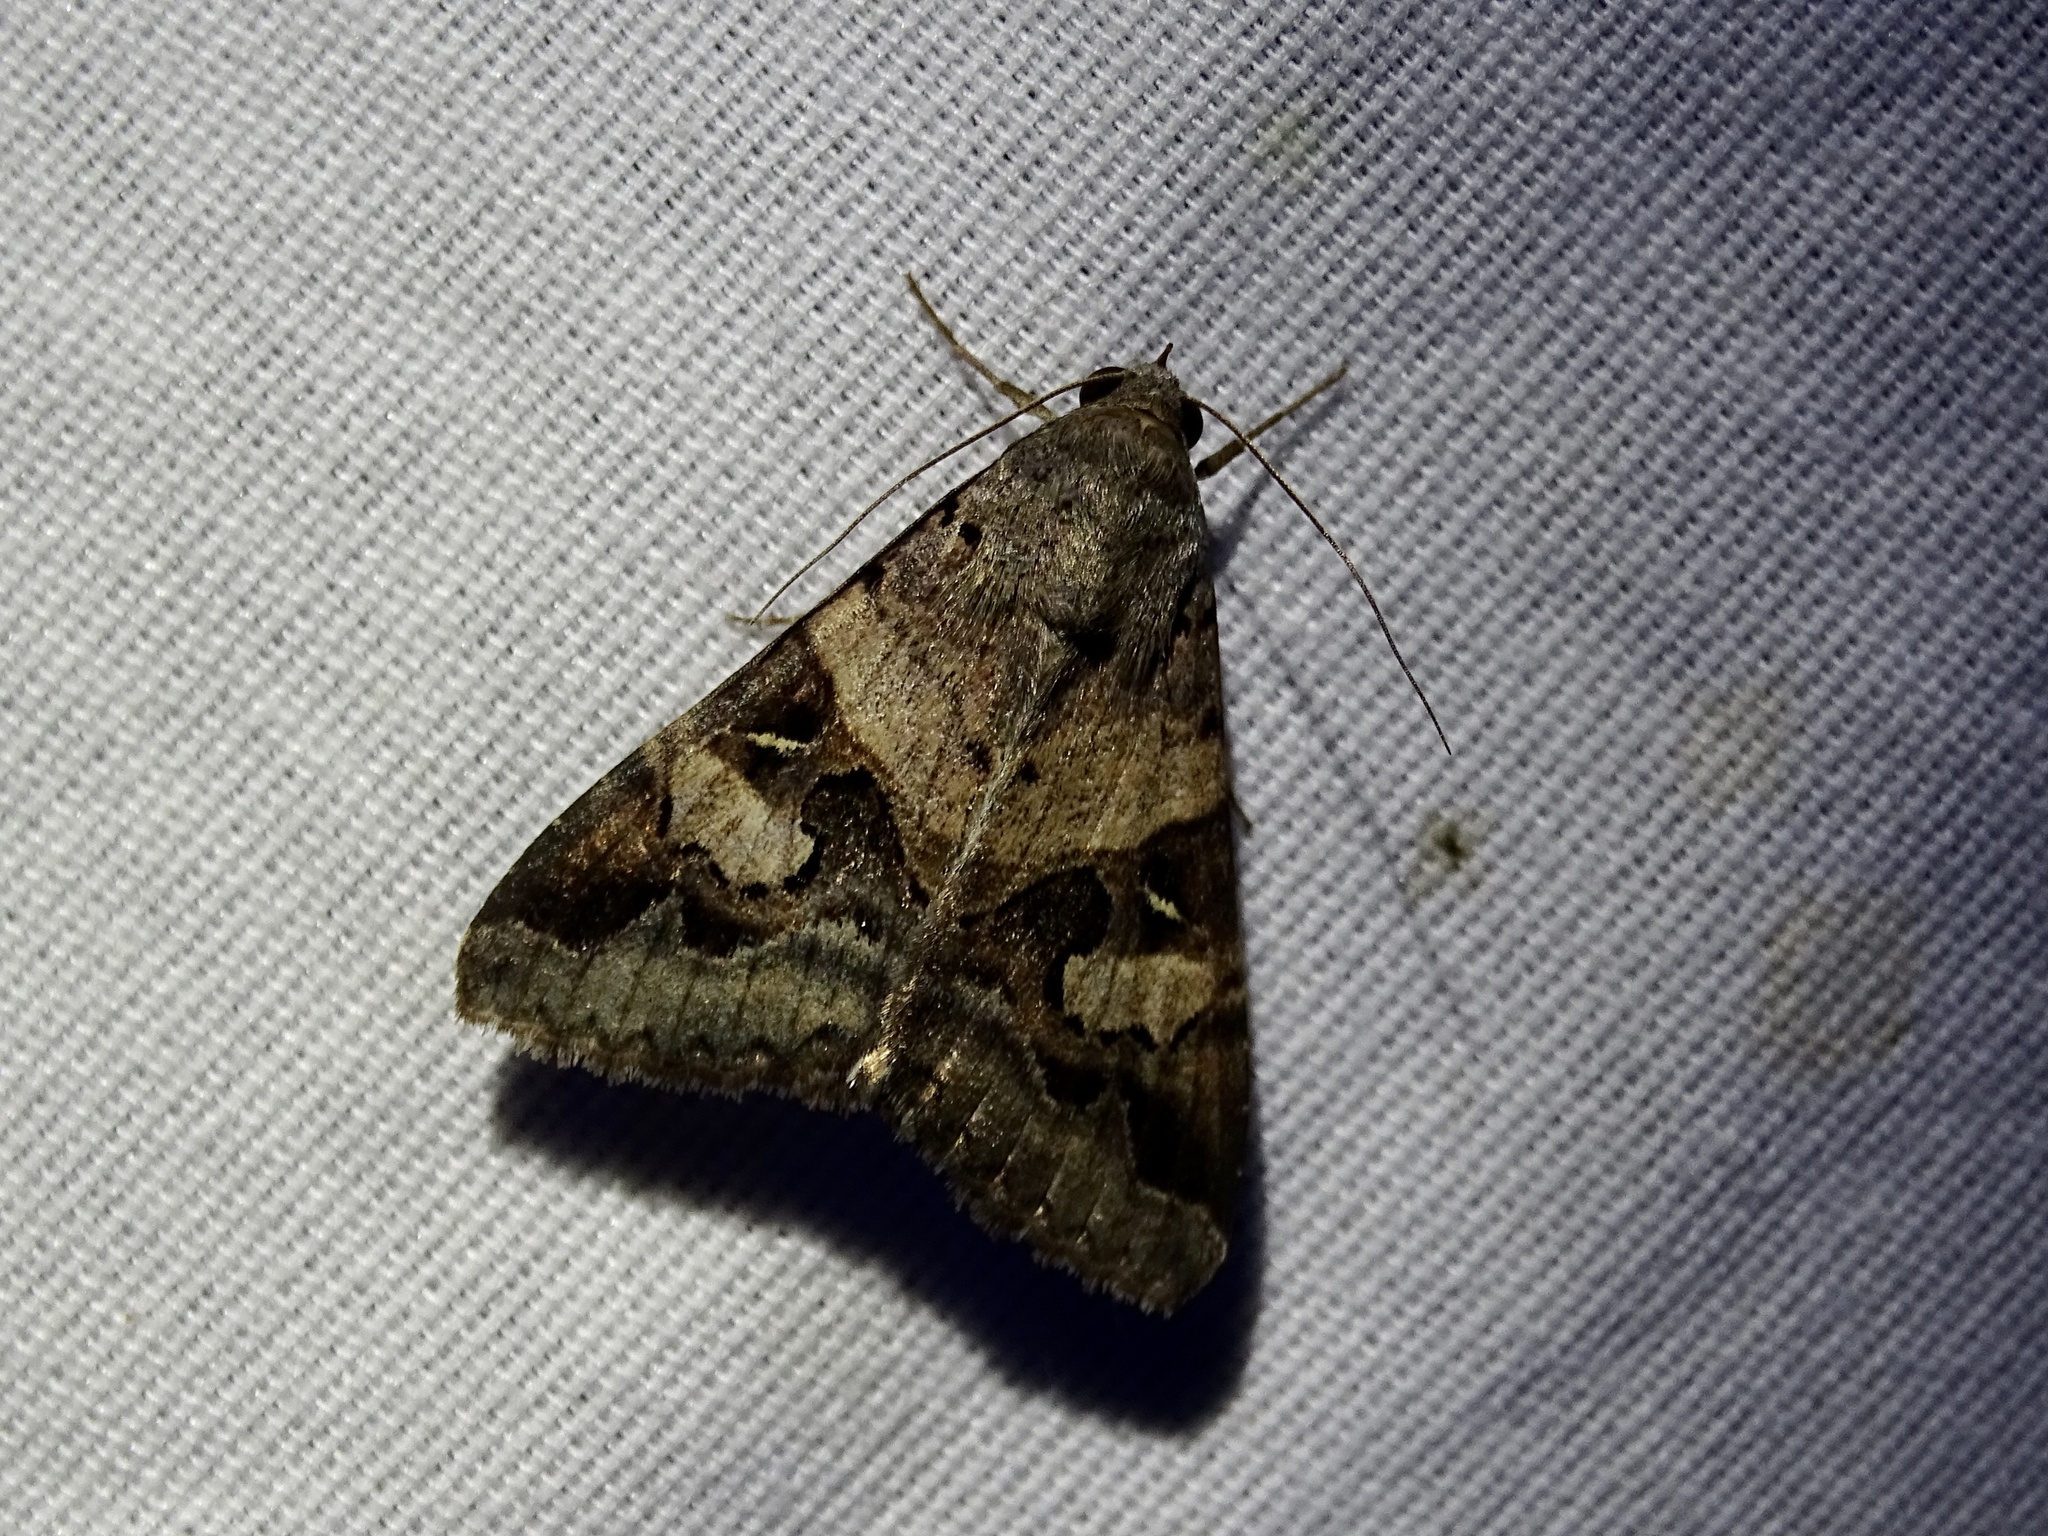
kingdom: Animalia
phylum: Arthropoda
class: Insecta
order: Lepidoptera
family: Erebidae
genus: Melipotis
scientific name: Melipotis indomita
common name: Moth
